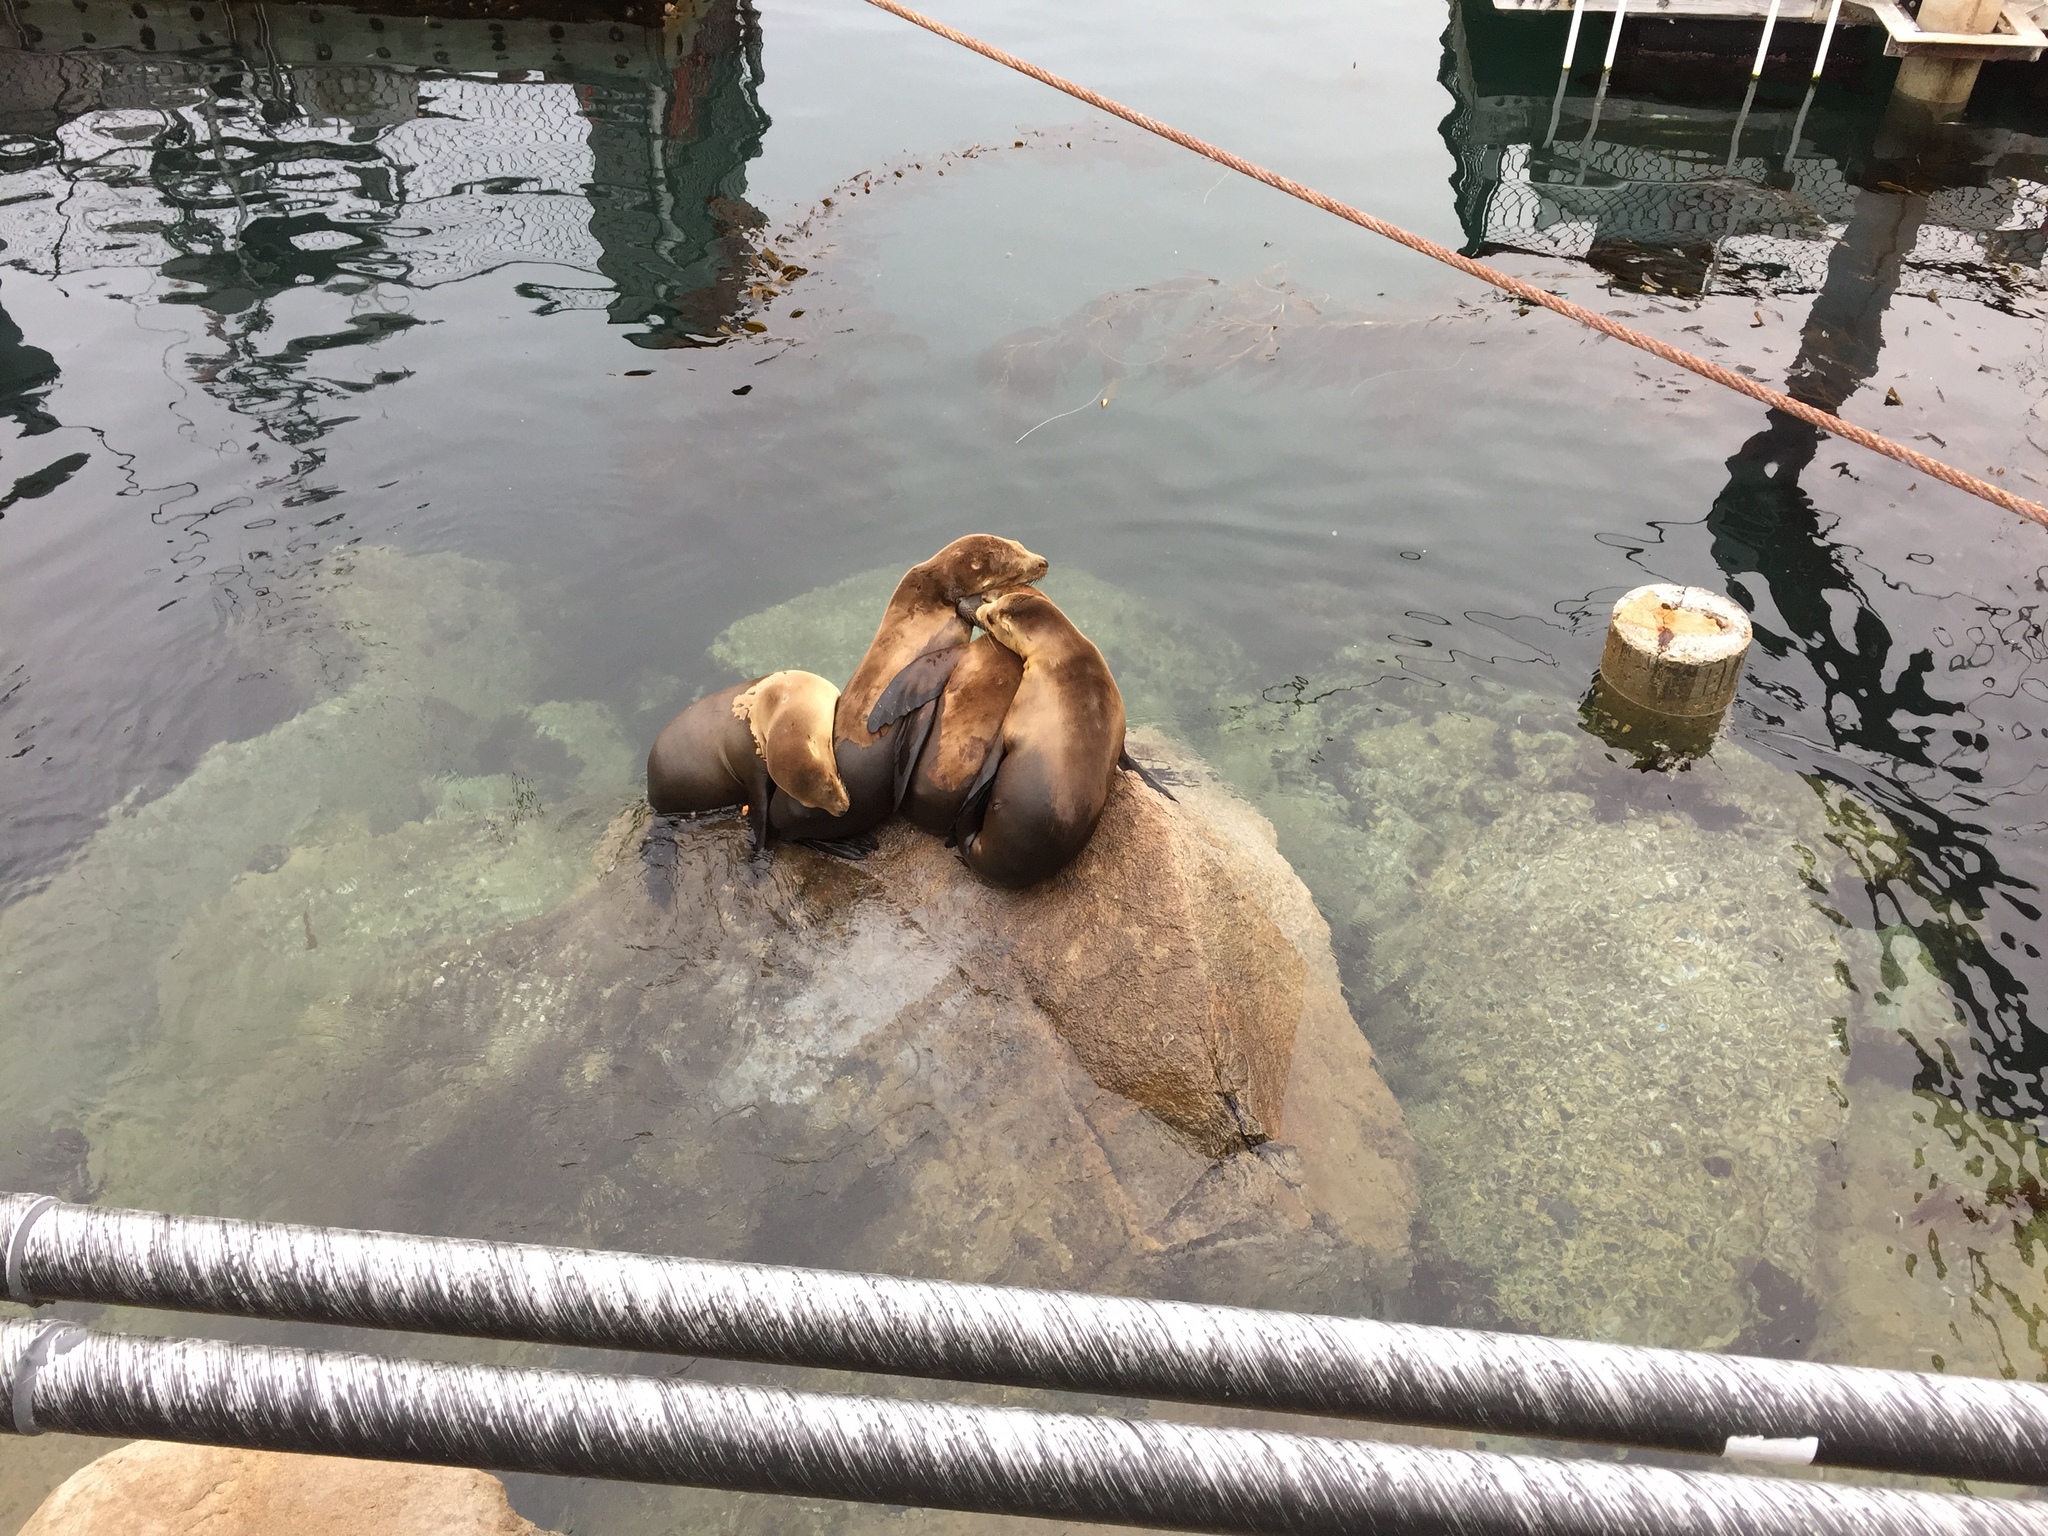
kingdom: Animalia
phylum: Chordata
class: Mammalia
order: Carnivora
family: Otariidae
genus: Zalophus
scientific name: Zalophus californianus
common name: California sea lion
